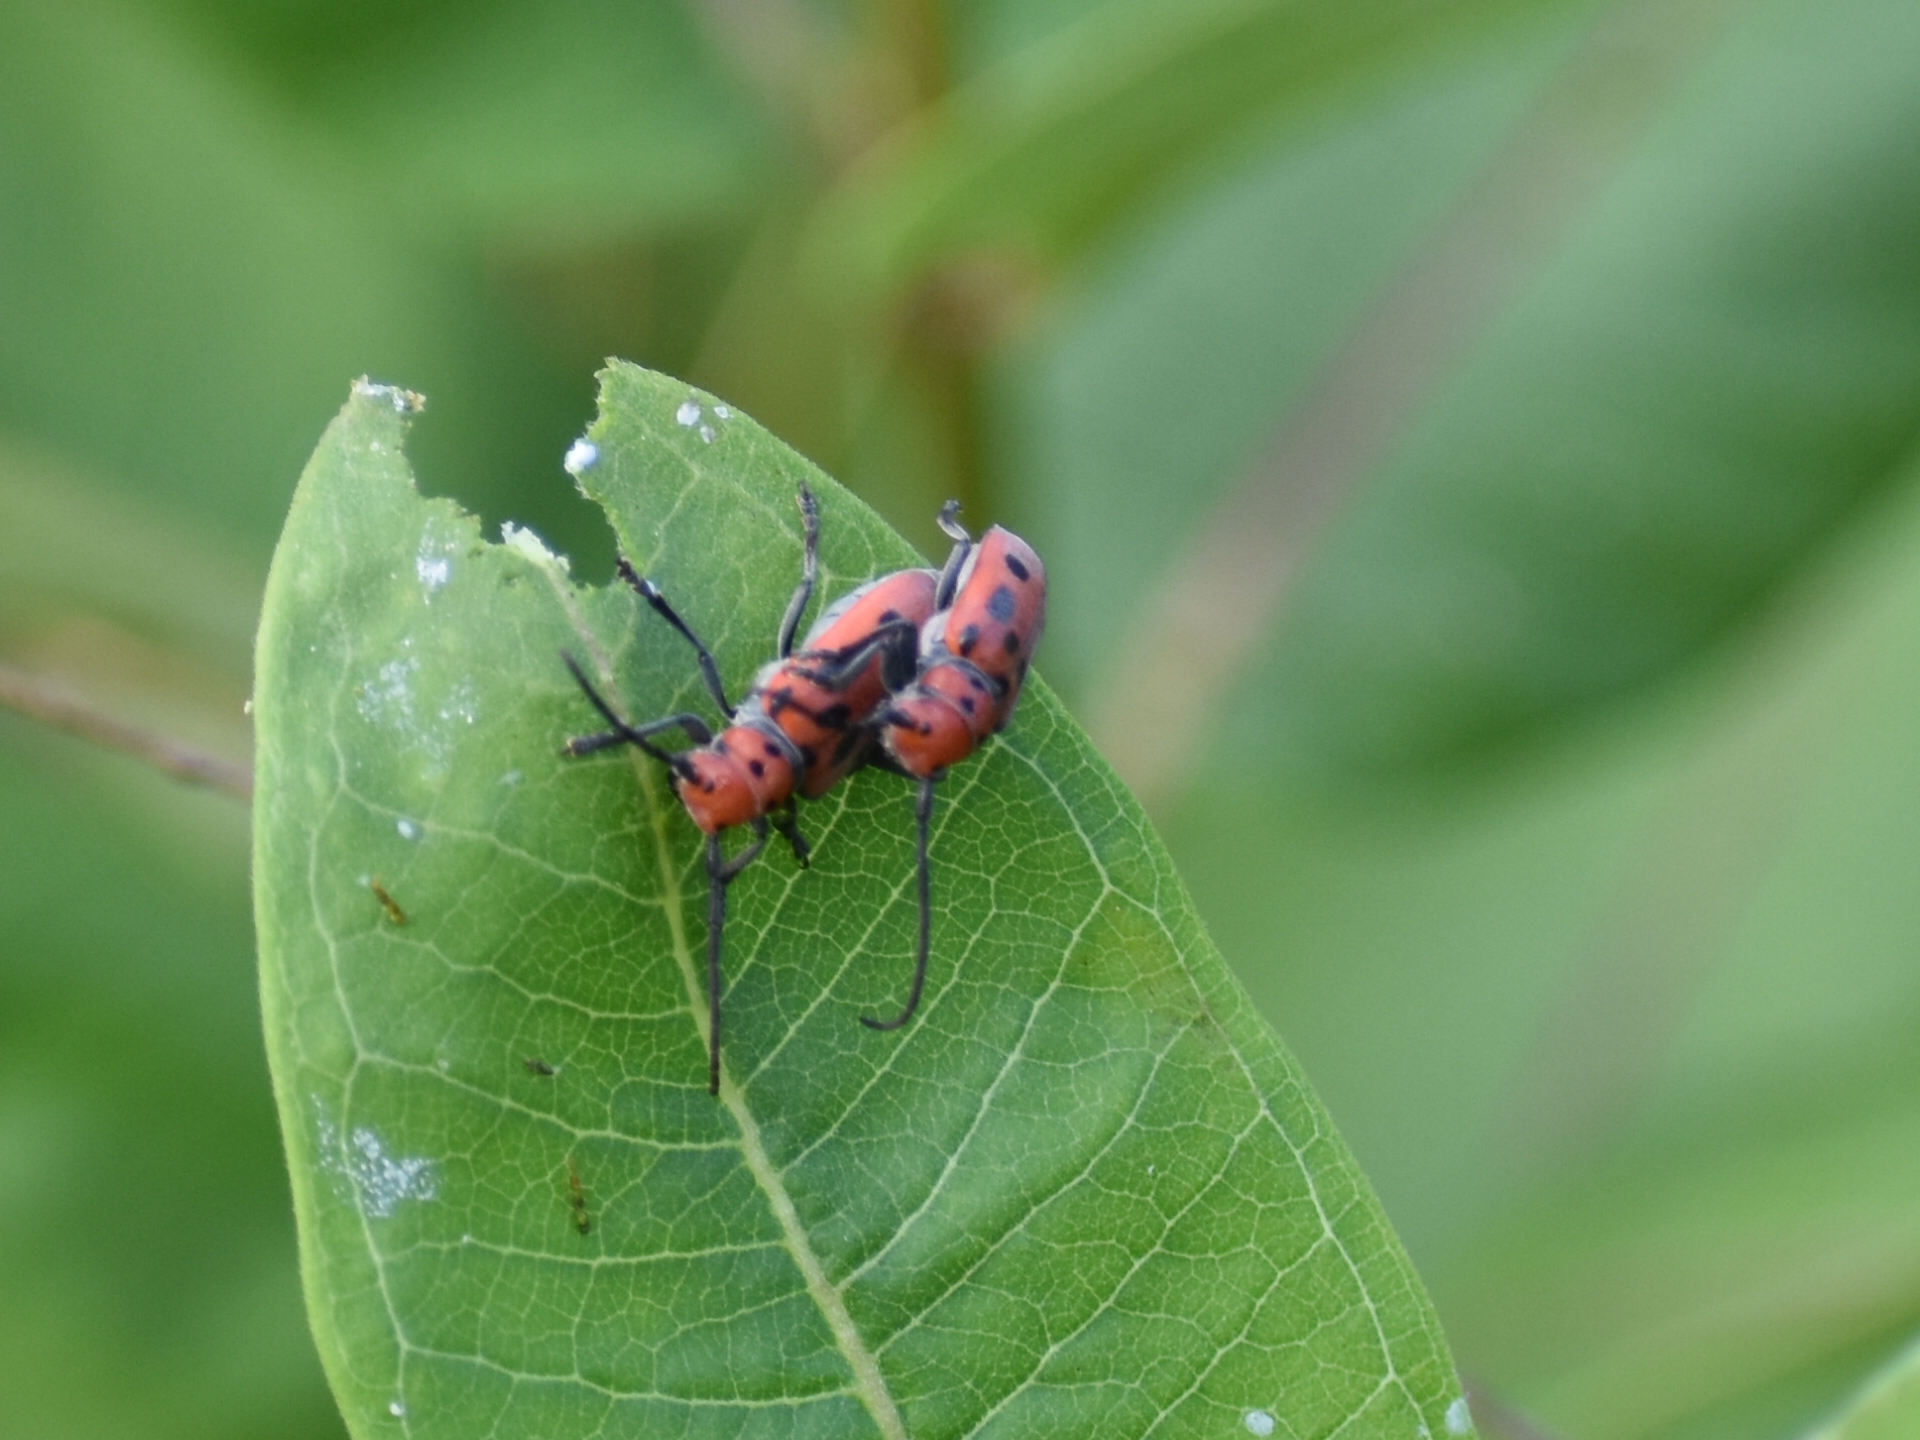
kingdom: Animalia
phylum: Arthropoda
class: Insecta
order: Coleoptera
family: Cerambycidae
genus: Tetraopes
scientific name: Tetraopes tetrophthalmus
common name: Red milkweed beetle
